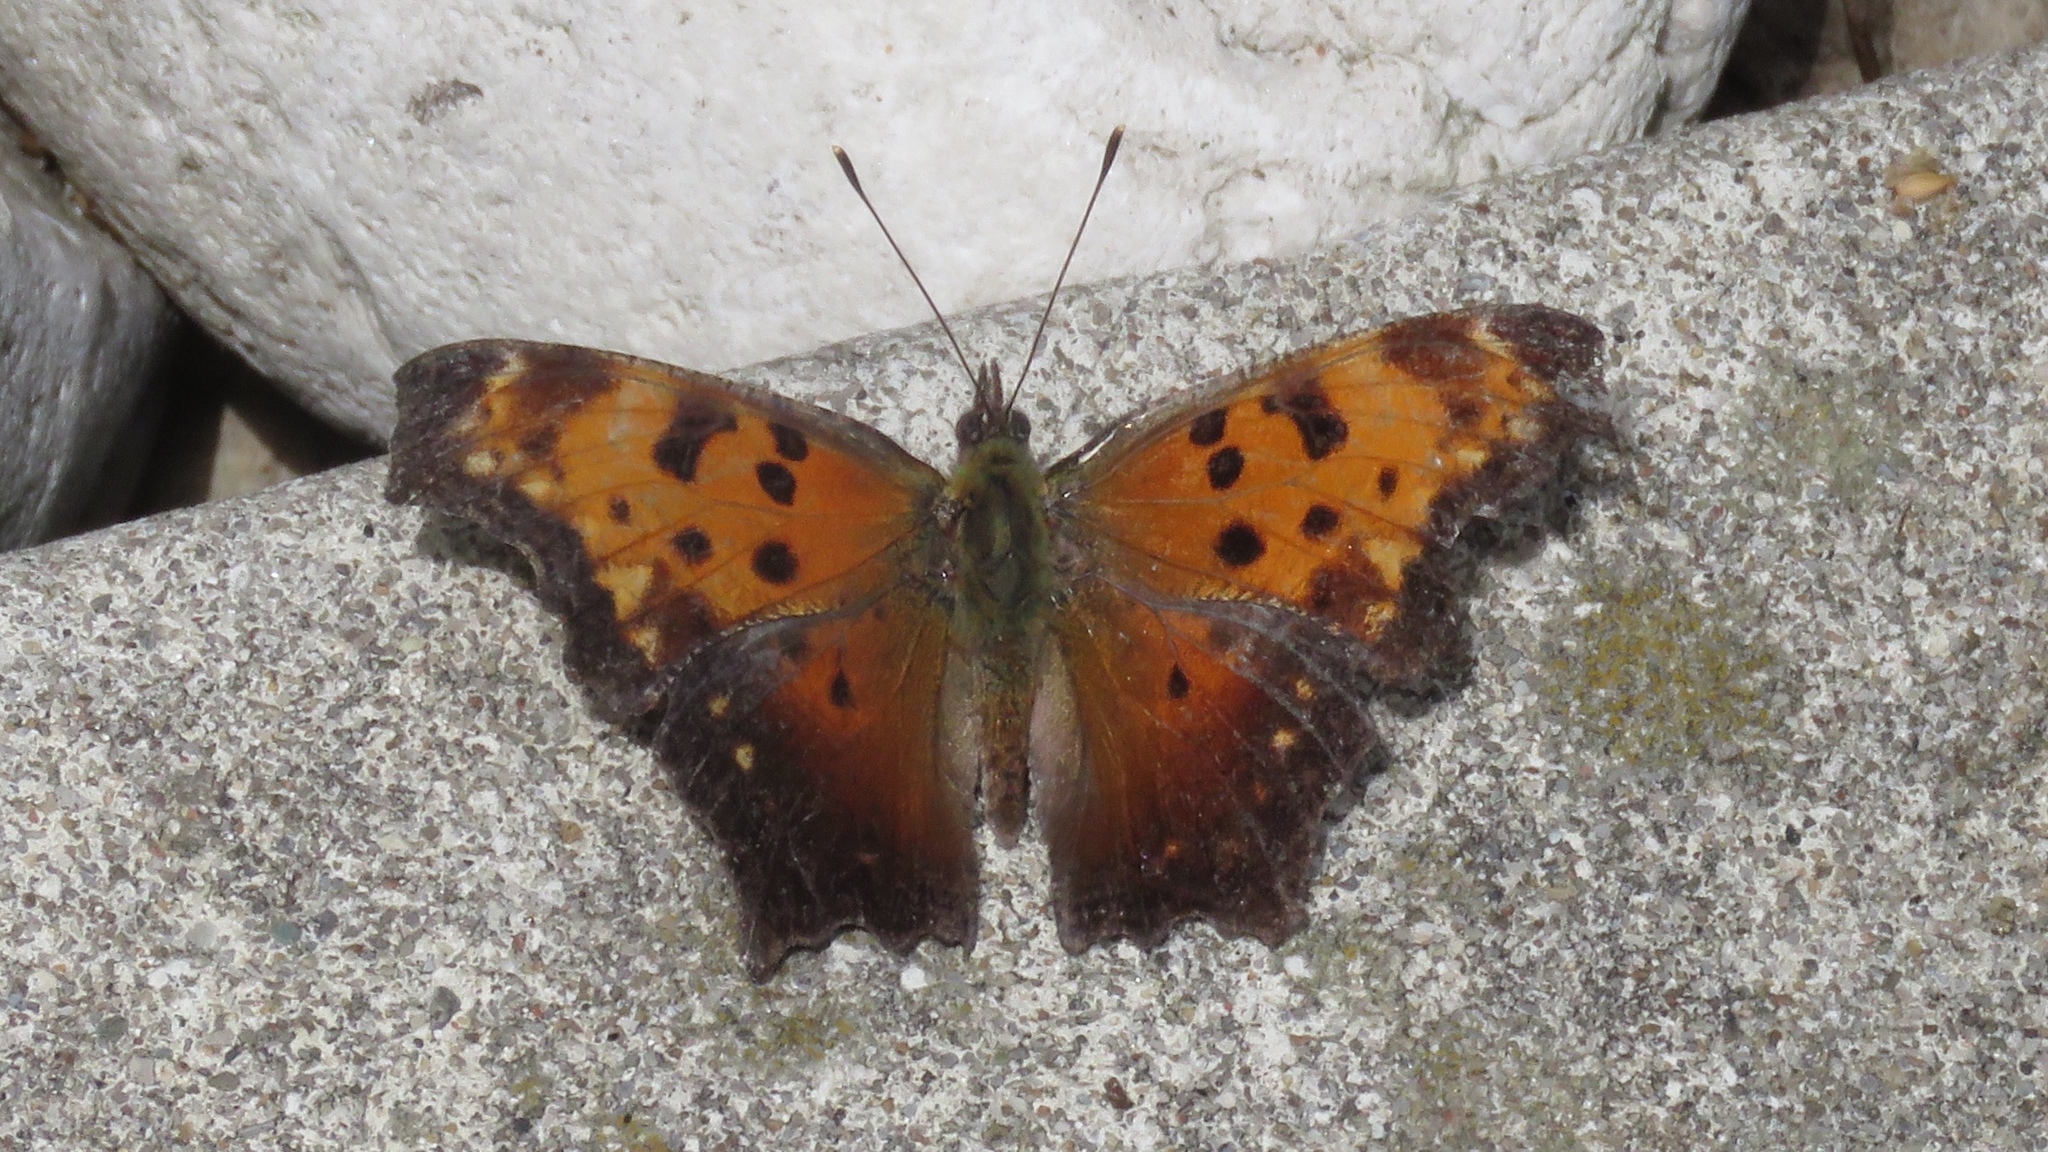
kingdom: Animalia
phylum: Arthropoda
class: Insecta
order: Lepidoptera
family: Nymphalidae
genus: Polygonia
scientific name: Polygonia progne
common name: Gray comma
